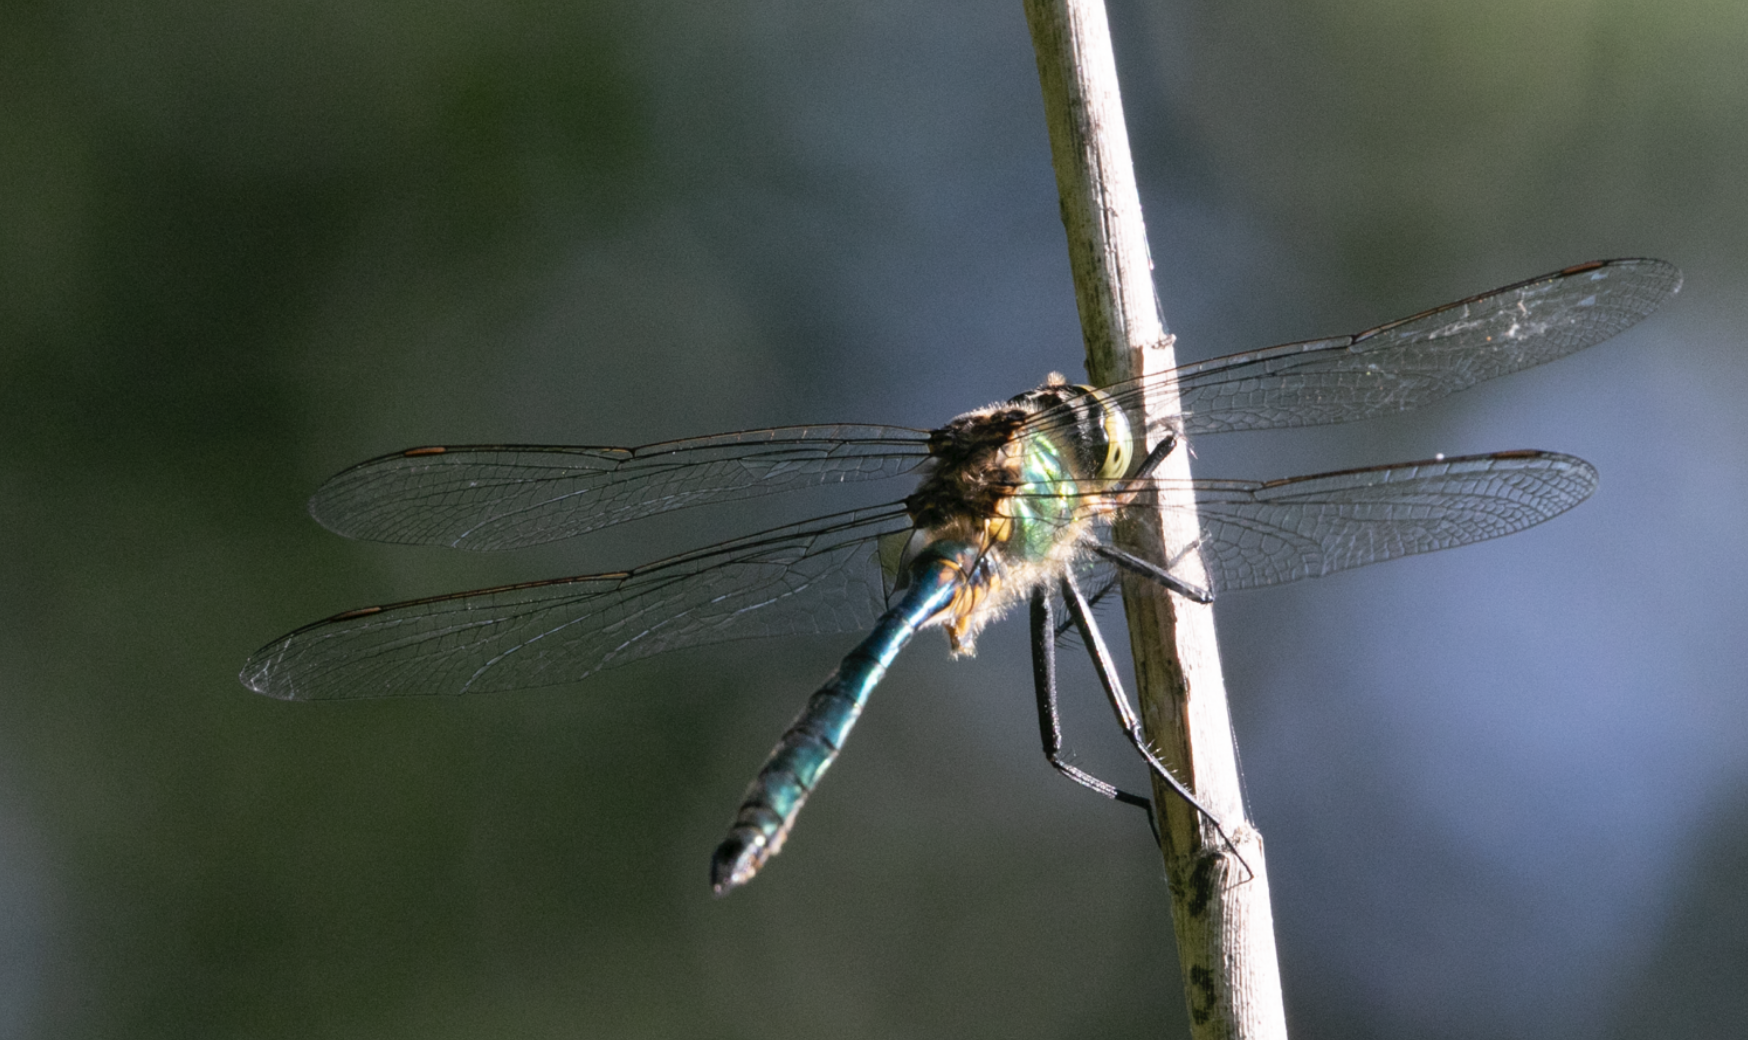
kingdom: Animalia
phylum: Arthropoda
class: Insecta
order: Odonata
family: Corduliidae
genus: Somatochlora
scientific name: Somatochlora metallica
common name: Brilliant emerald
